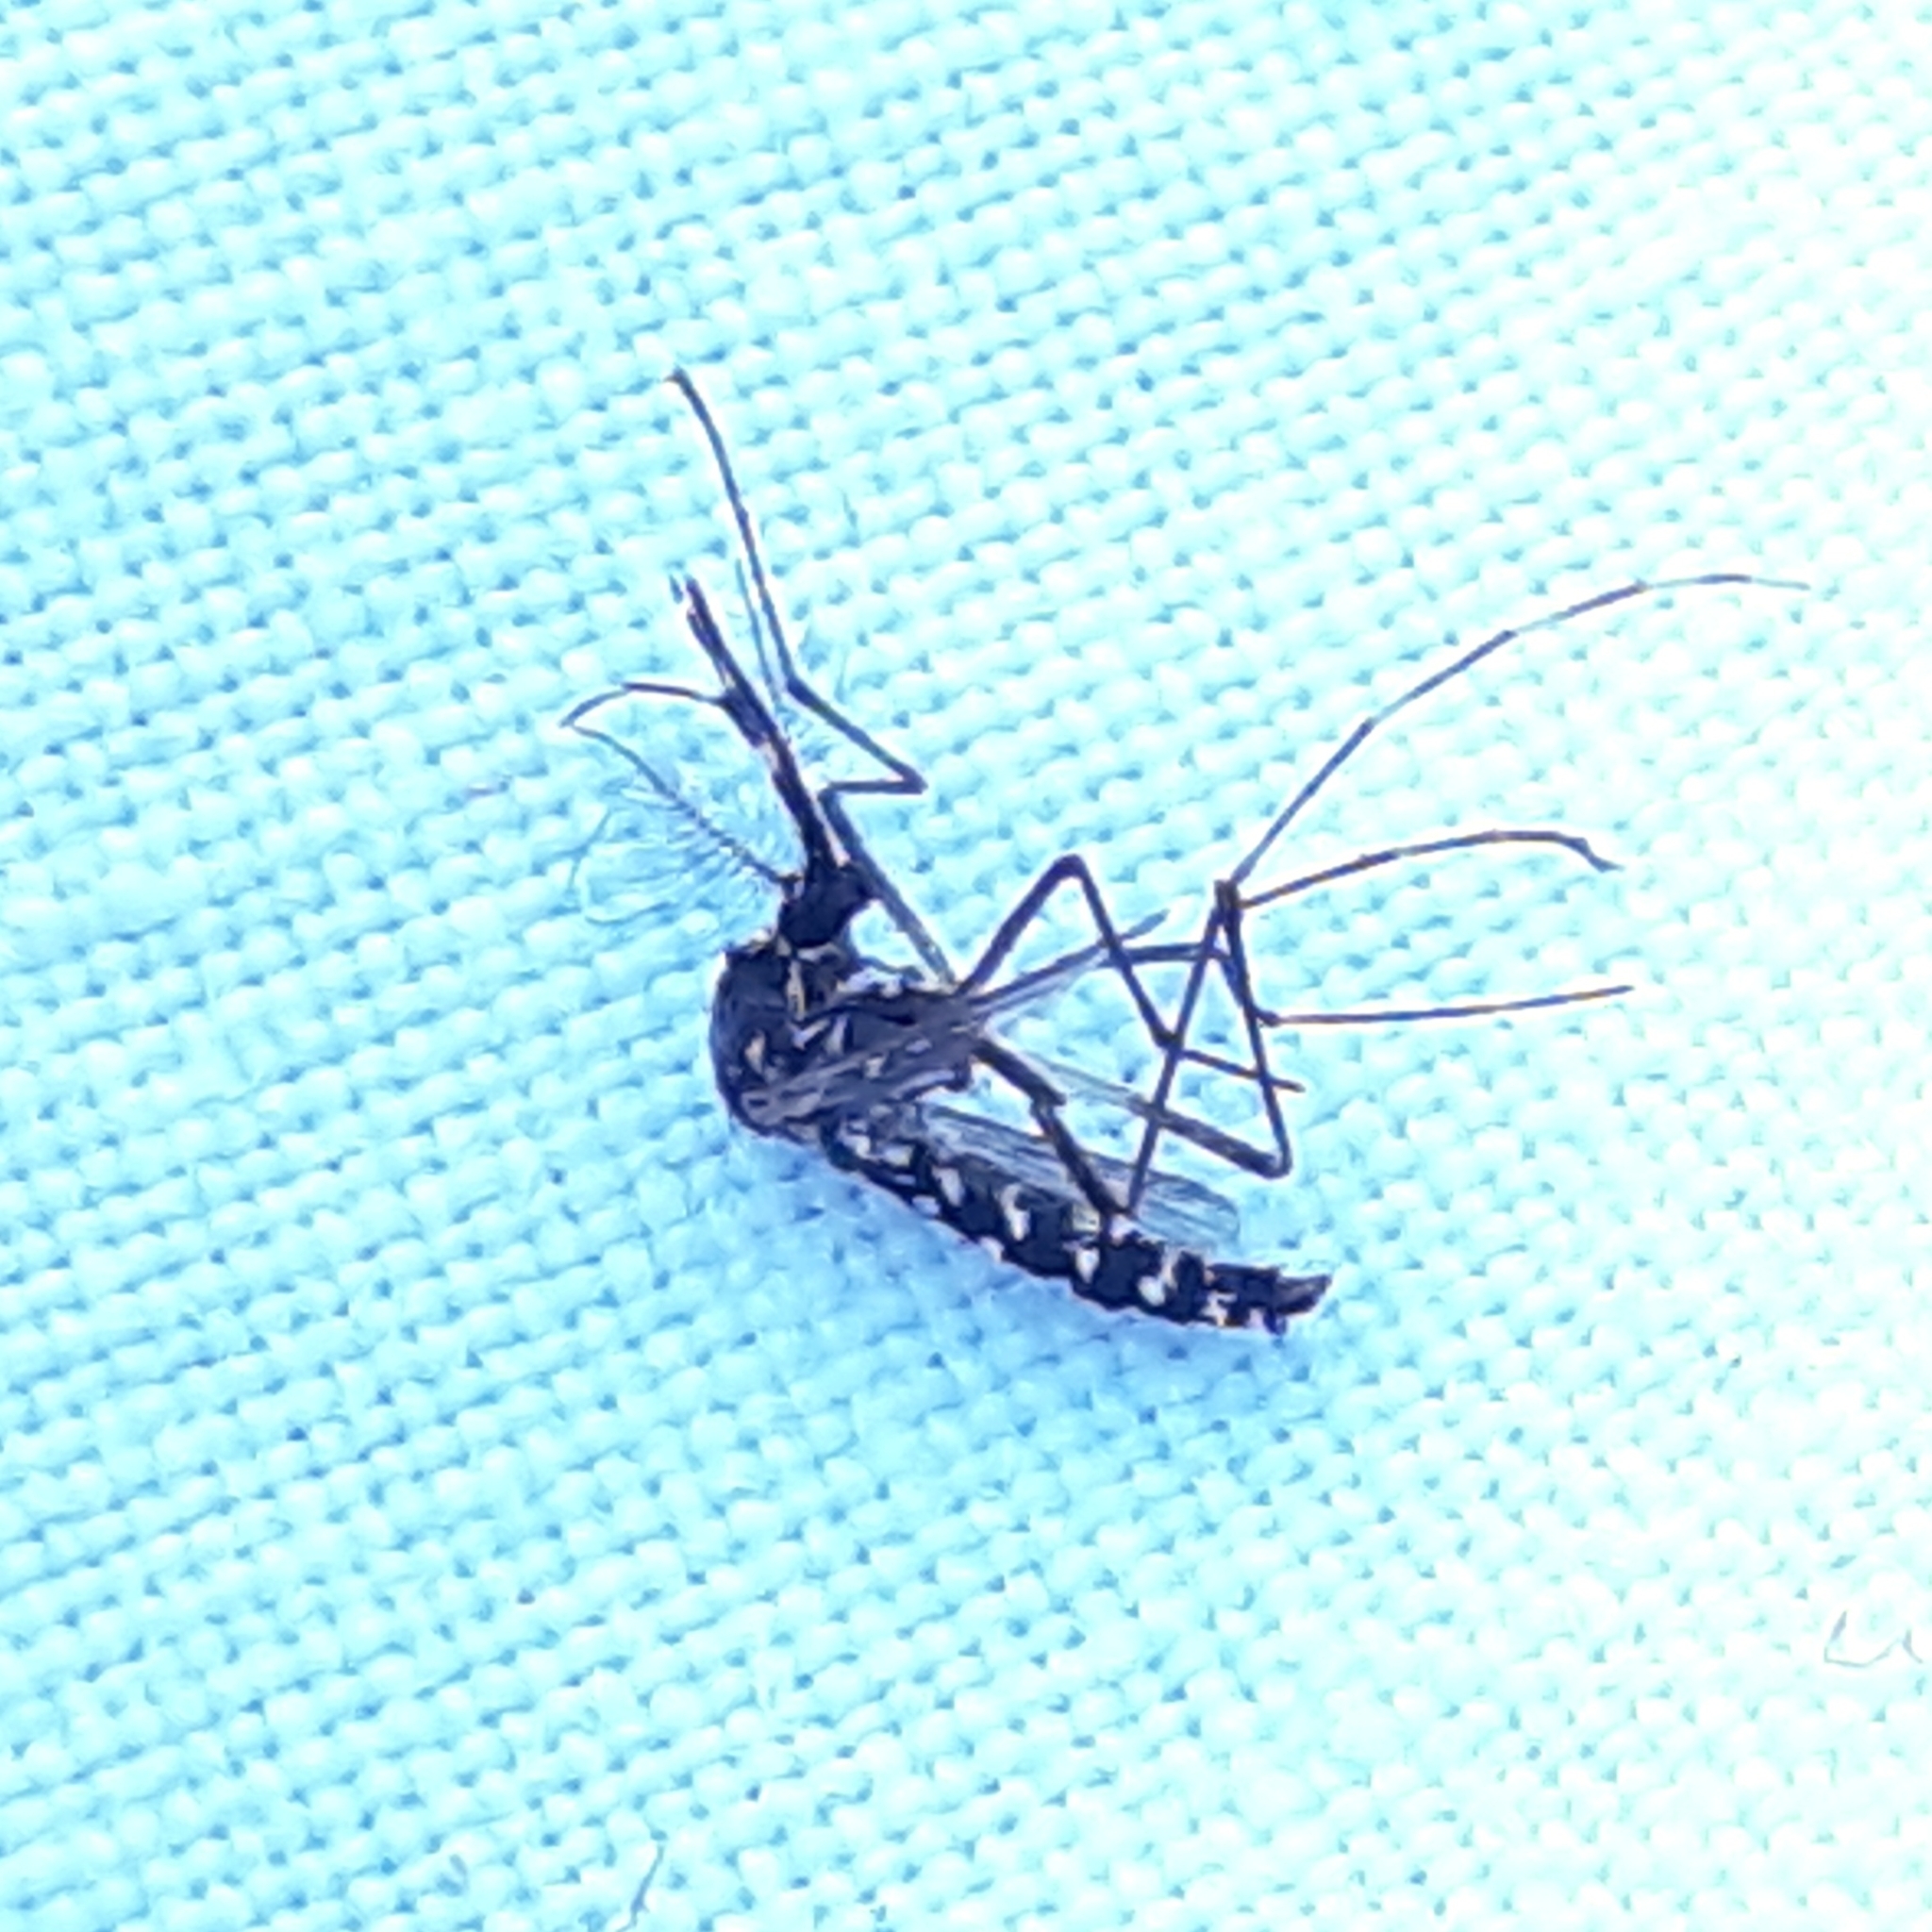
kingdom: Animalia
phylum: Arthropoda
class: Insecta
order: Diptera
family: Culicidae
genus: Aedes
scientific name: Aedes albopictus
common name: Tiger mosquito
